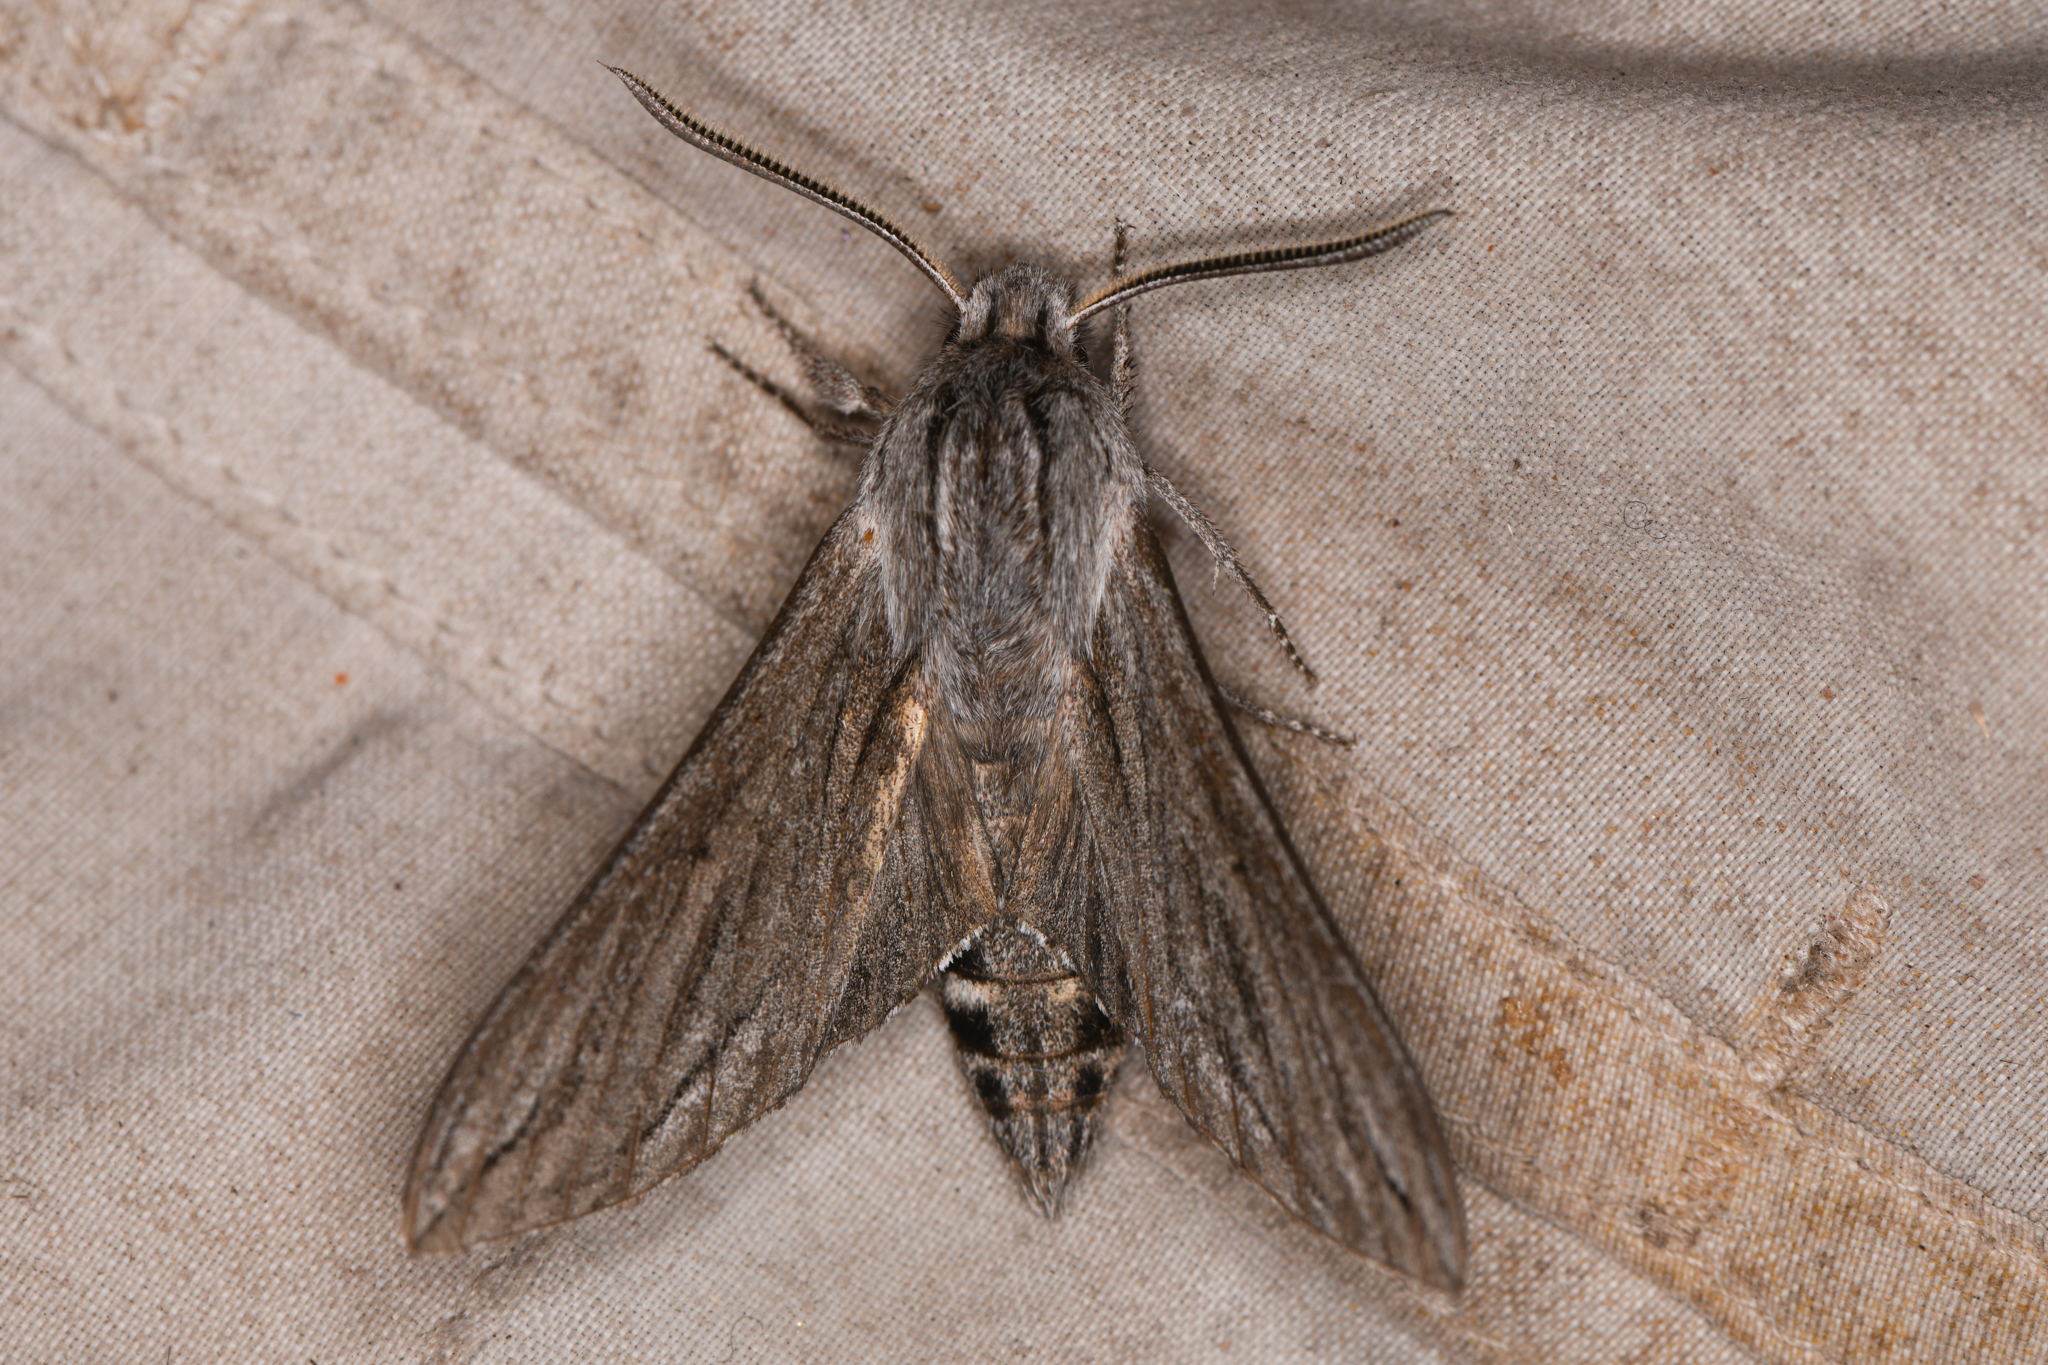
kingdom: Animalia
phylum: Arthropoda
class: Insecta
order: Lepidoptera
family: Sphingidae
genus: Sphinx
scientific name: Sphinx sequoiae
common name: Sequoia sphinx
